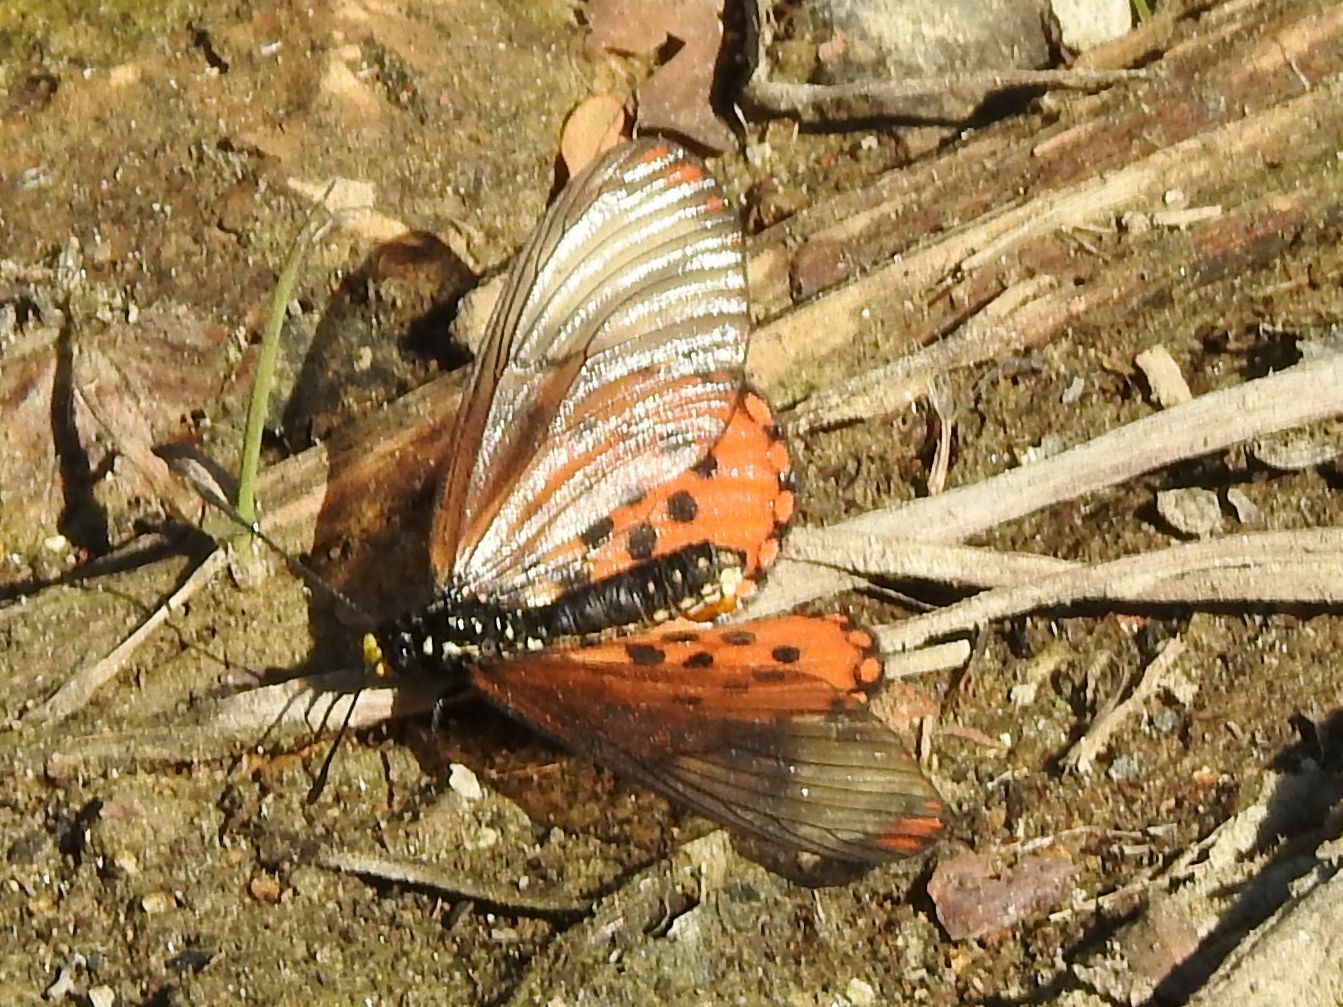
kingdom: Animalia
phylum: Arthropoda
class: Insecta
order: Lepidoptera
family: Nymphalidae
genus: Acraea
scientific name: Acraea horta
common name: Garden acraea
